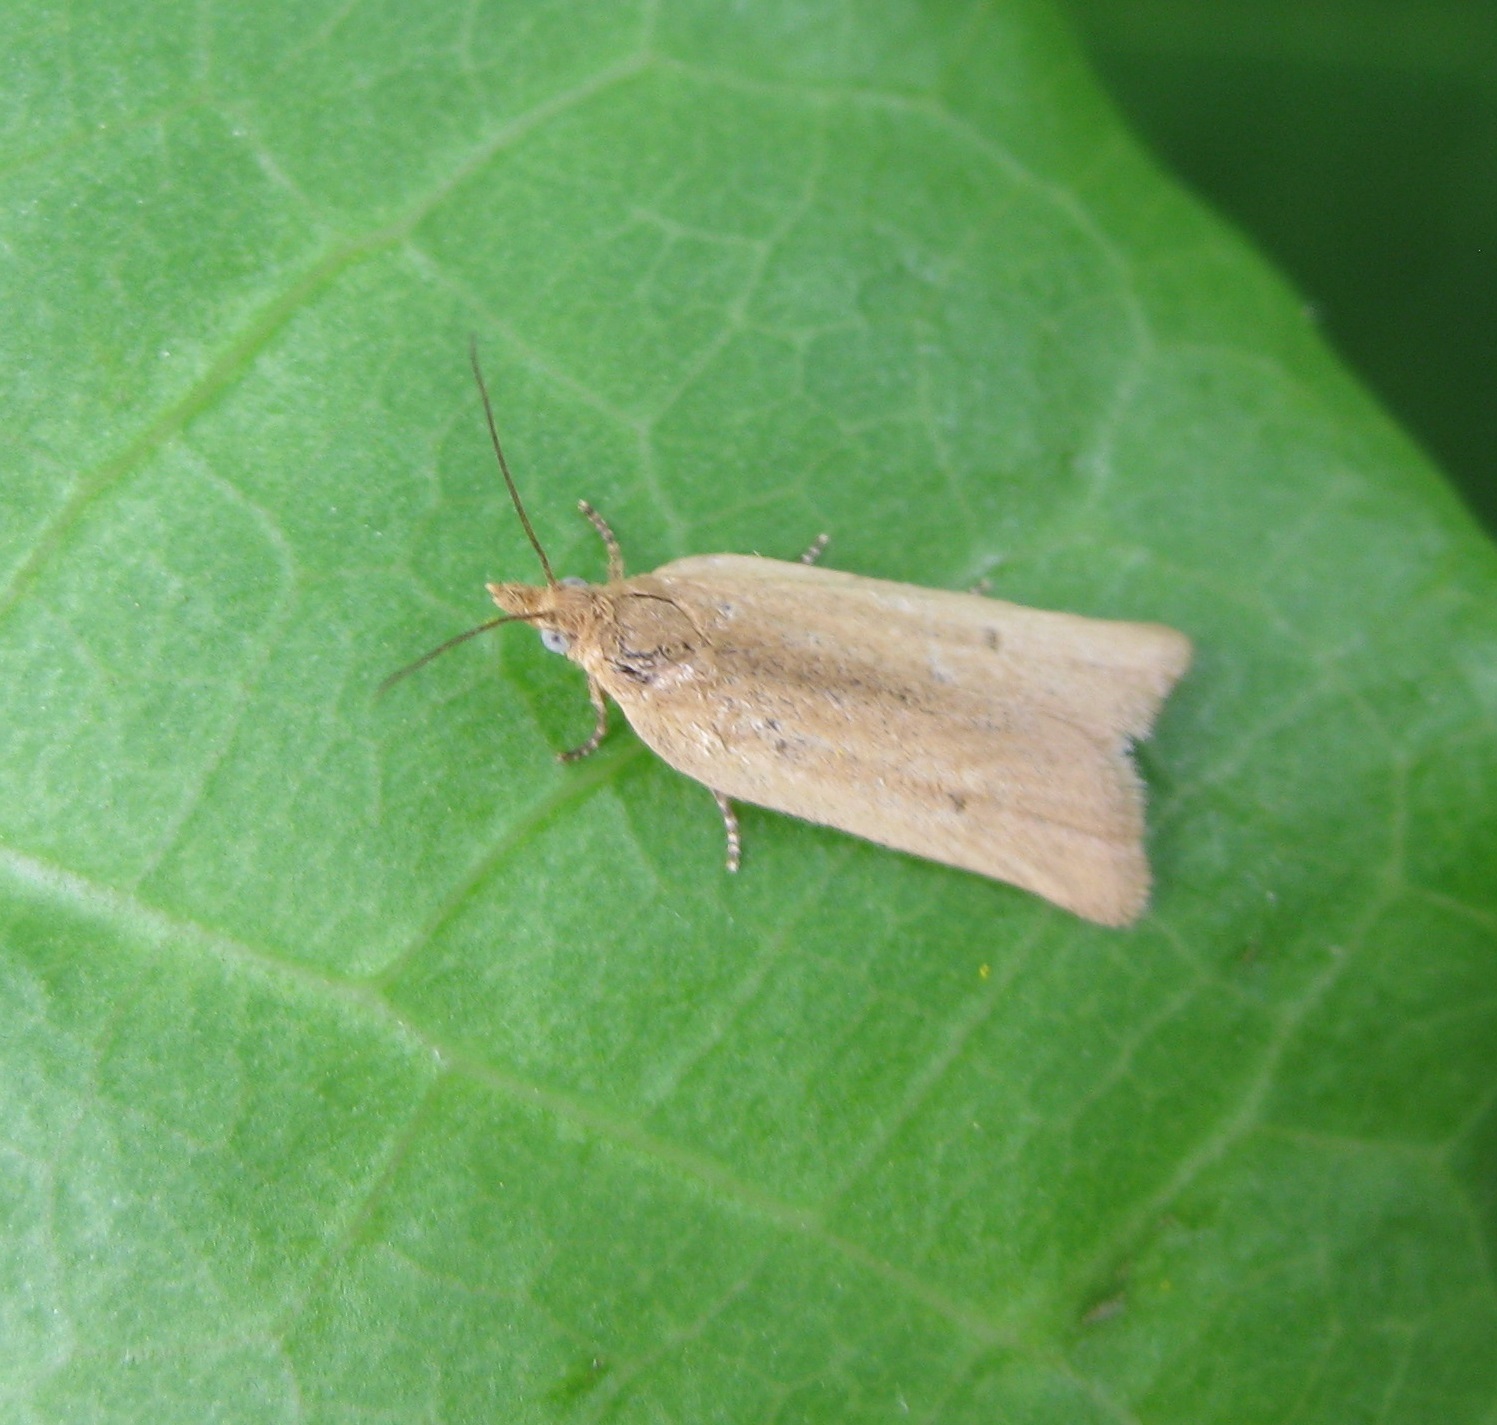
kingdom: Animalia
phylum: Arthropoda
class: Insecta
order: Lepidoptera
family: Tortricidae
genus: Epichorista
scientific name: Epichorista siriana
